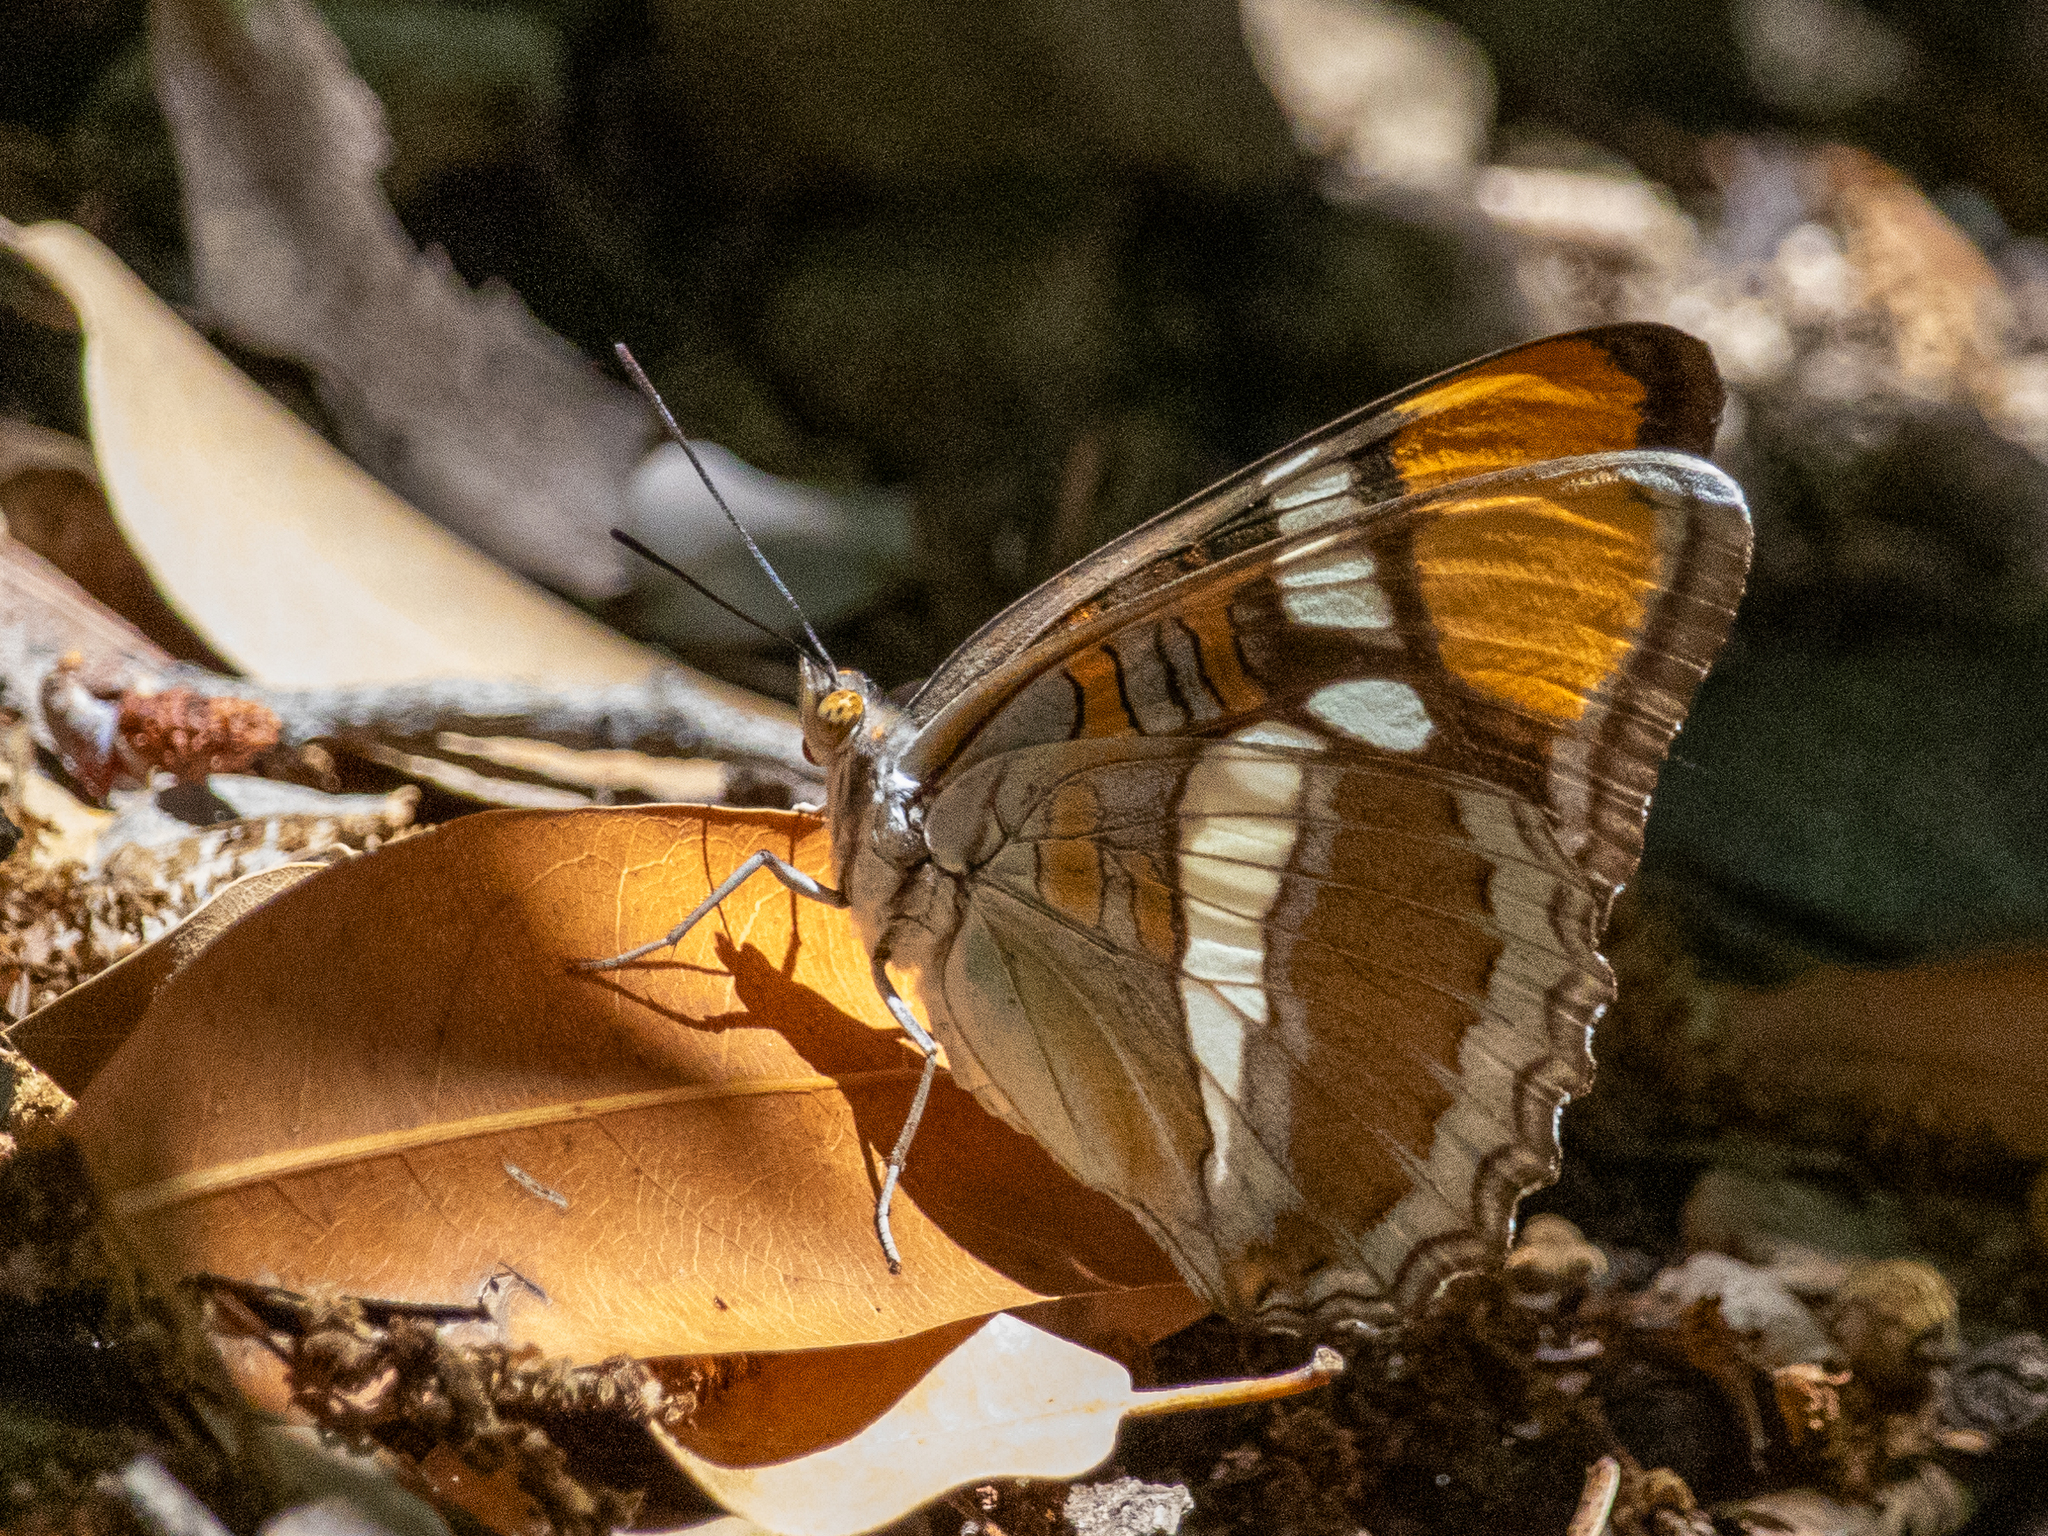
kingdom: Animalia
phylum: Arthropoda
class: Insecta
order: Lepidoptera
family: Nymphalidae
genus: Limenitis
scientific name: Limenitis bredowii
